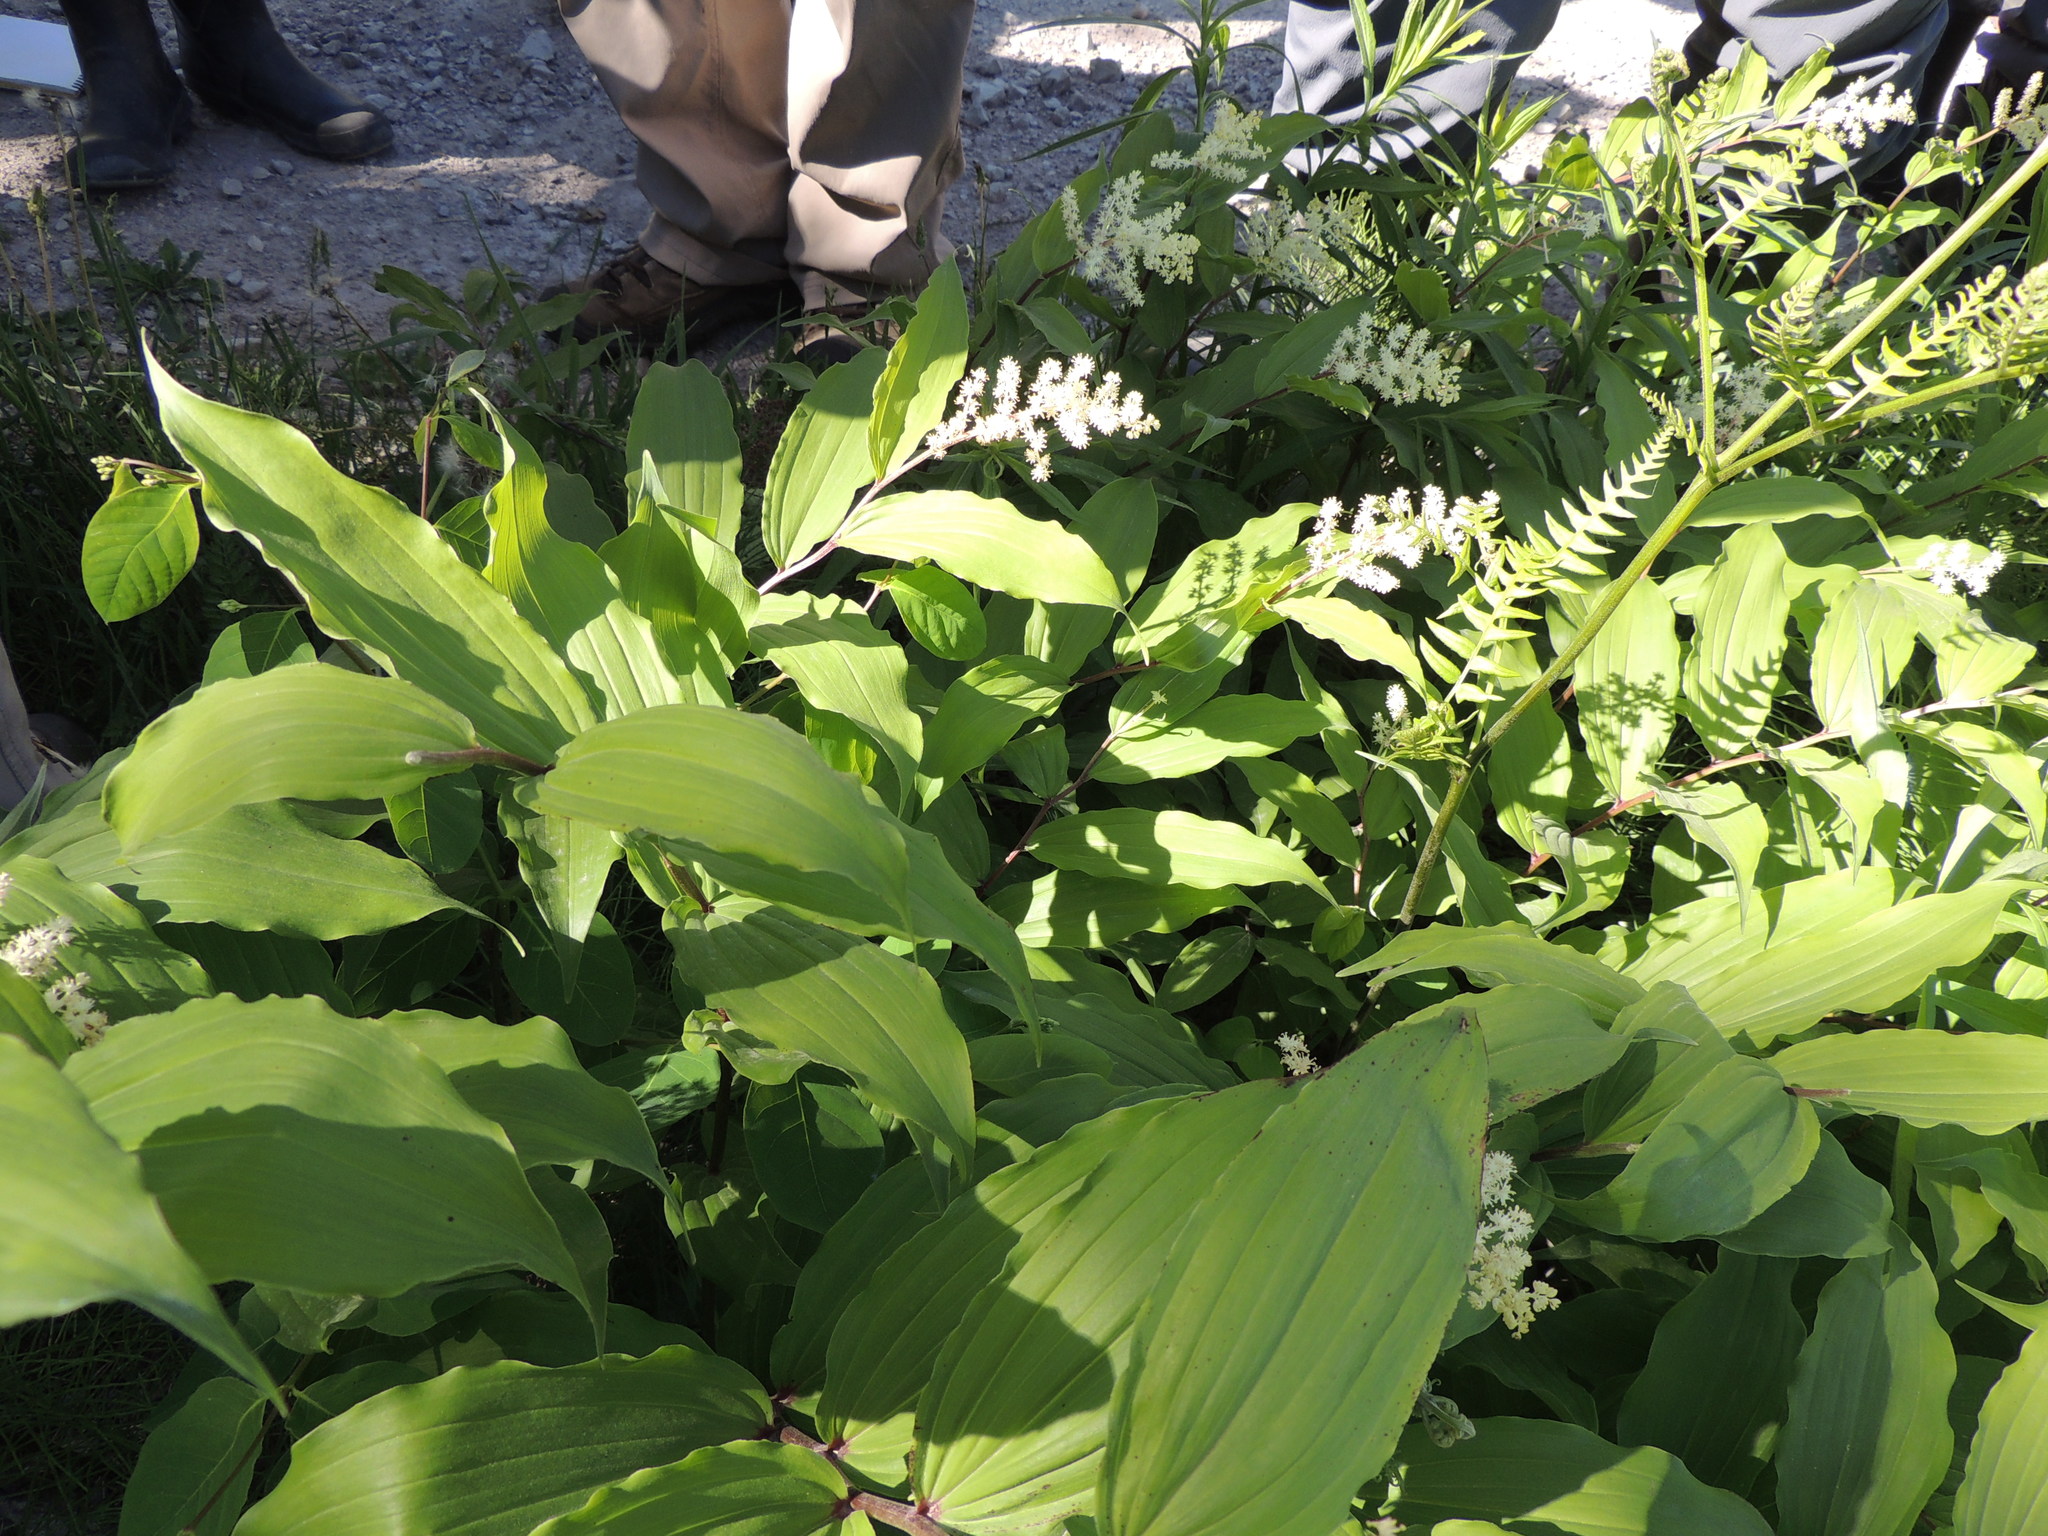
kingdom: Plantae
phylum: Tracheophyta
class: Liliopsida
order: Asparagales
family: Asparagaceae
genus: Maianthemum
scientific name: Maianthemum racemosum
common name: False spikenard
